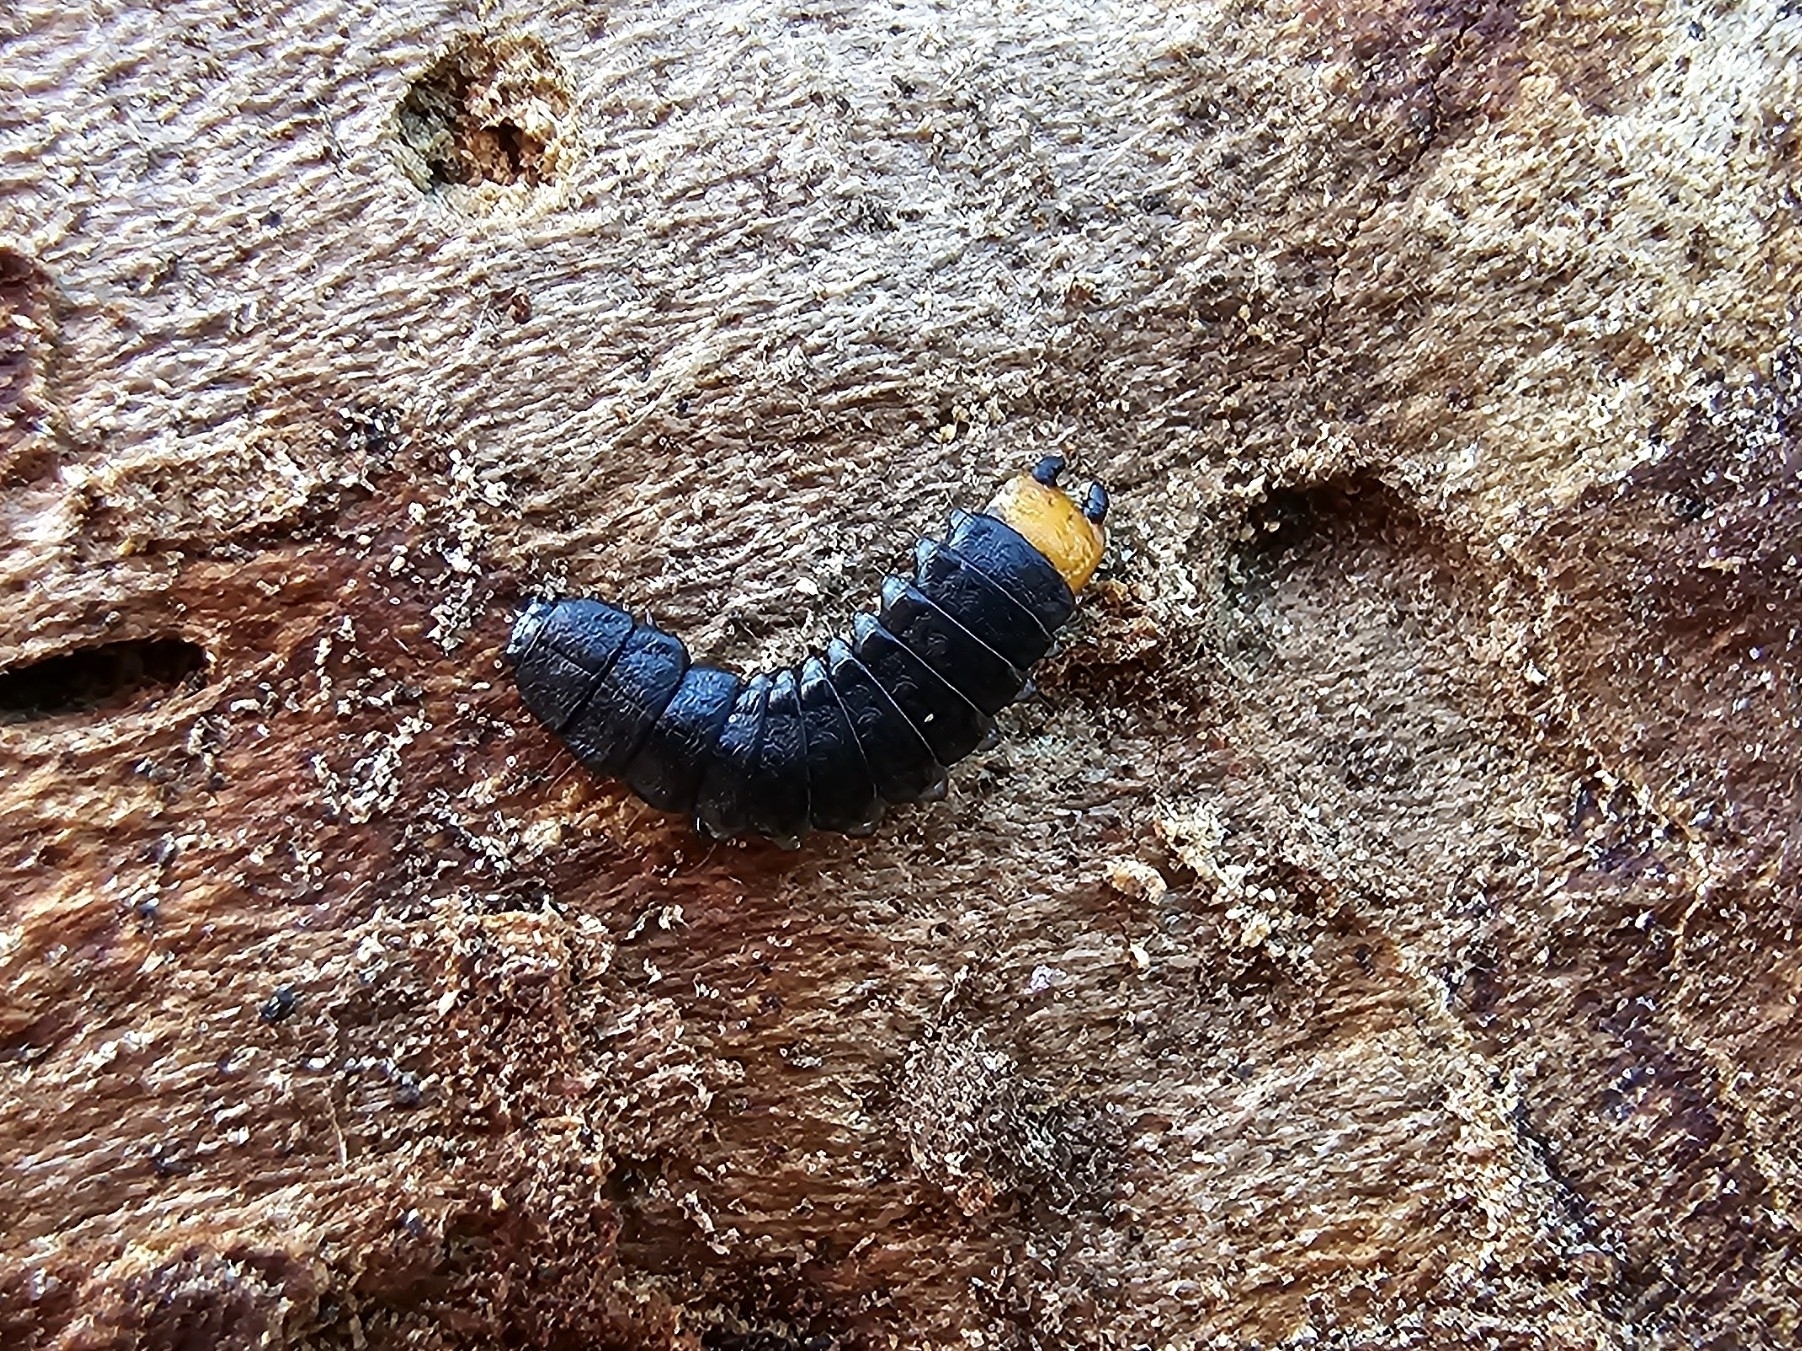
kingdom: Animalia
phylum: Arthropoda
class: Insecta
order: Coleoptera
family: Lycidae
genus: Lygistopterus
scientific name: Lygistopterus sanguineus
